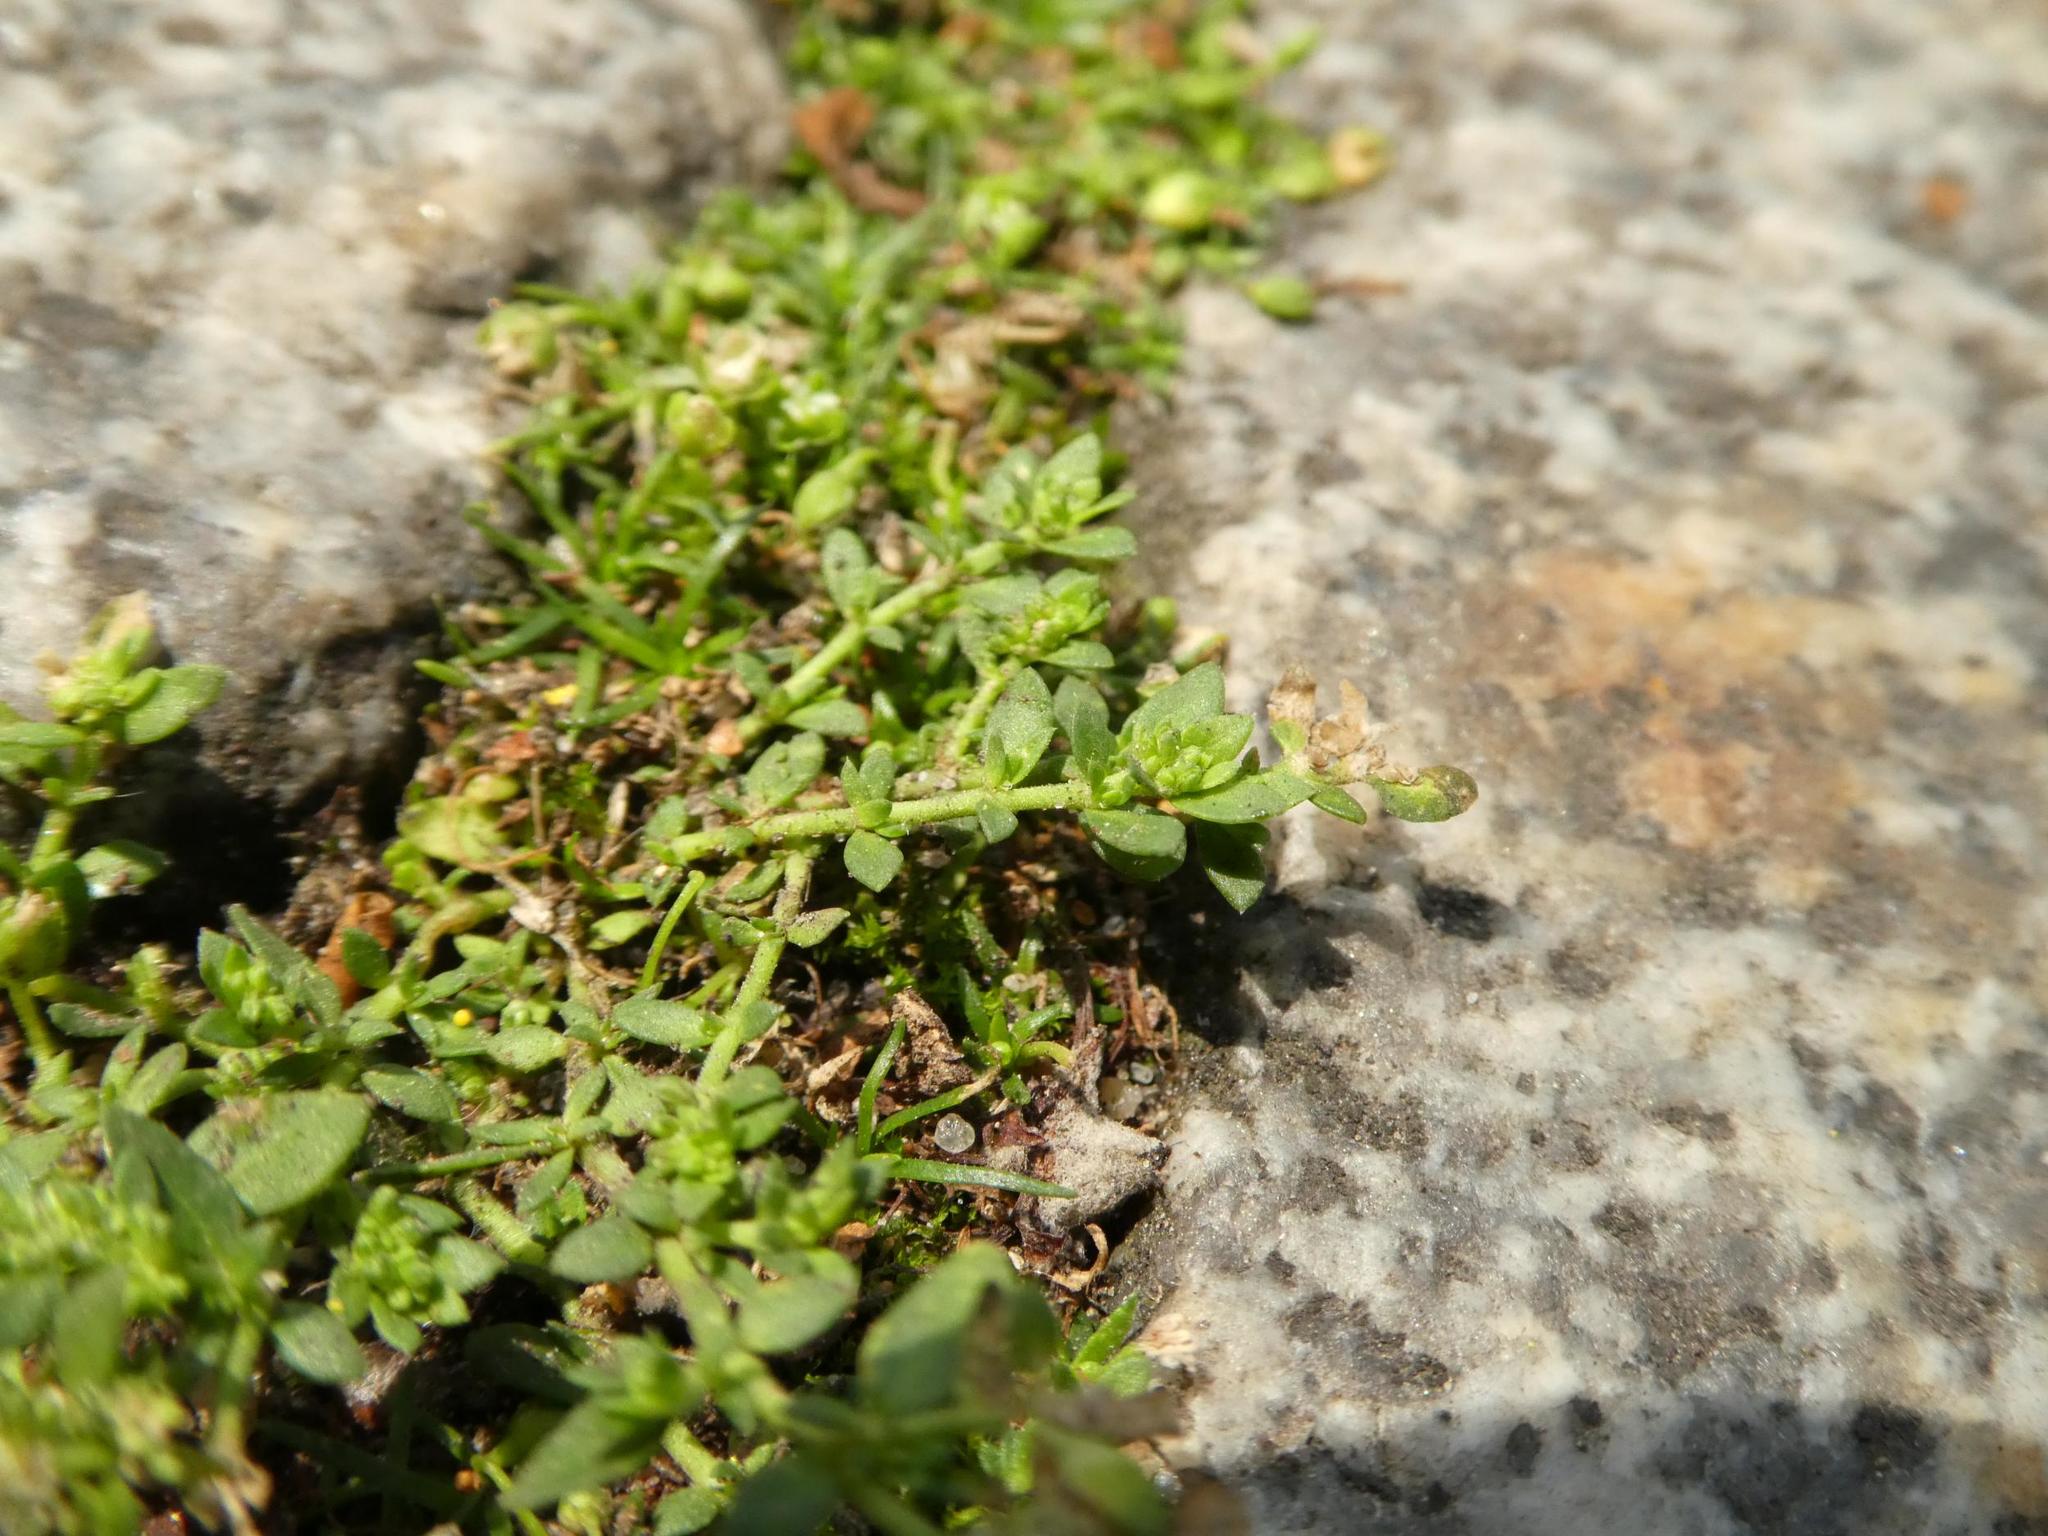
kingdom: Plantae
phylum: Tracheophyta
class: Magnoliopsida
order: Caryophyllales
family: Caryophyllaceae
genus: Herniaria
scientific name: Herniaria glabra
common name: Smooth rupturewort
